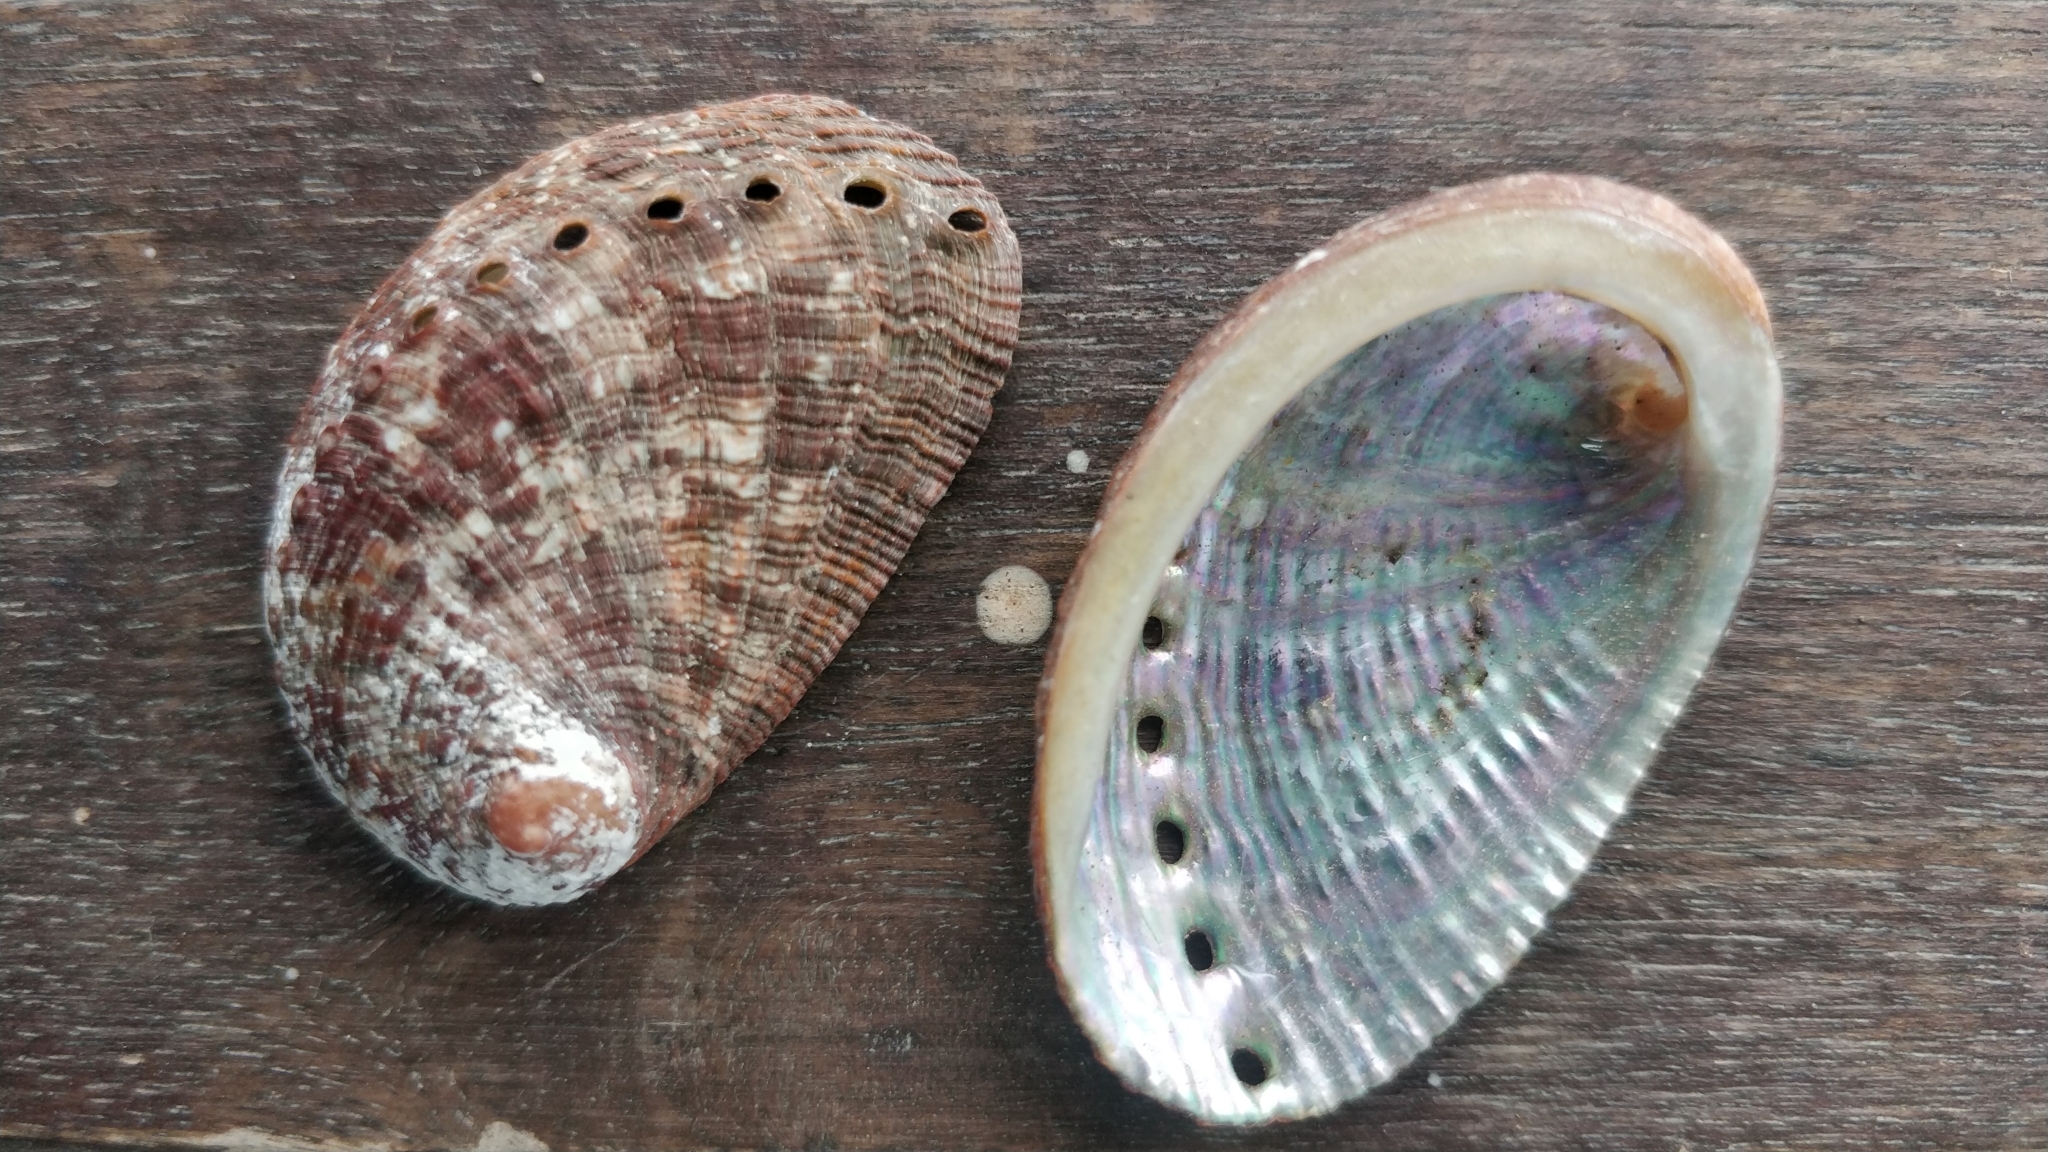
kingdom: Animalia
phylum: Mollusca
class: Gastropoda
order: Lepetellida
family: Haliotidae
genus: Haliotis
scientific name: Haliotis tuberculata
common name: Green ormer
